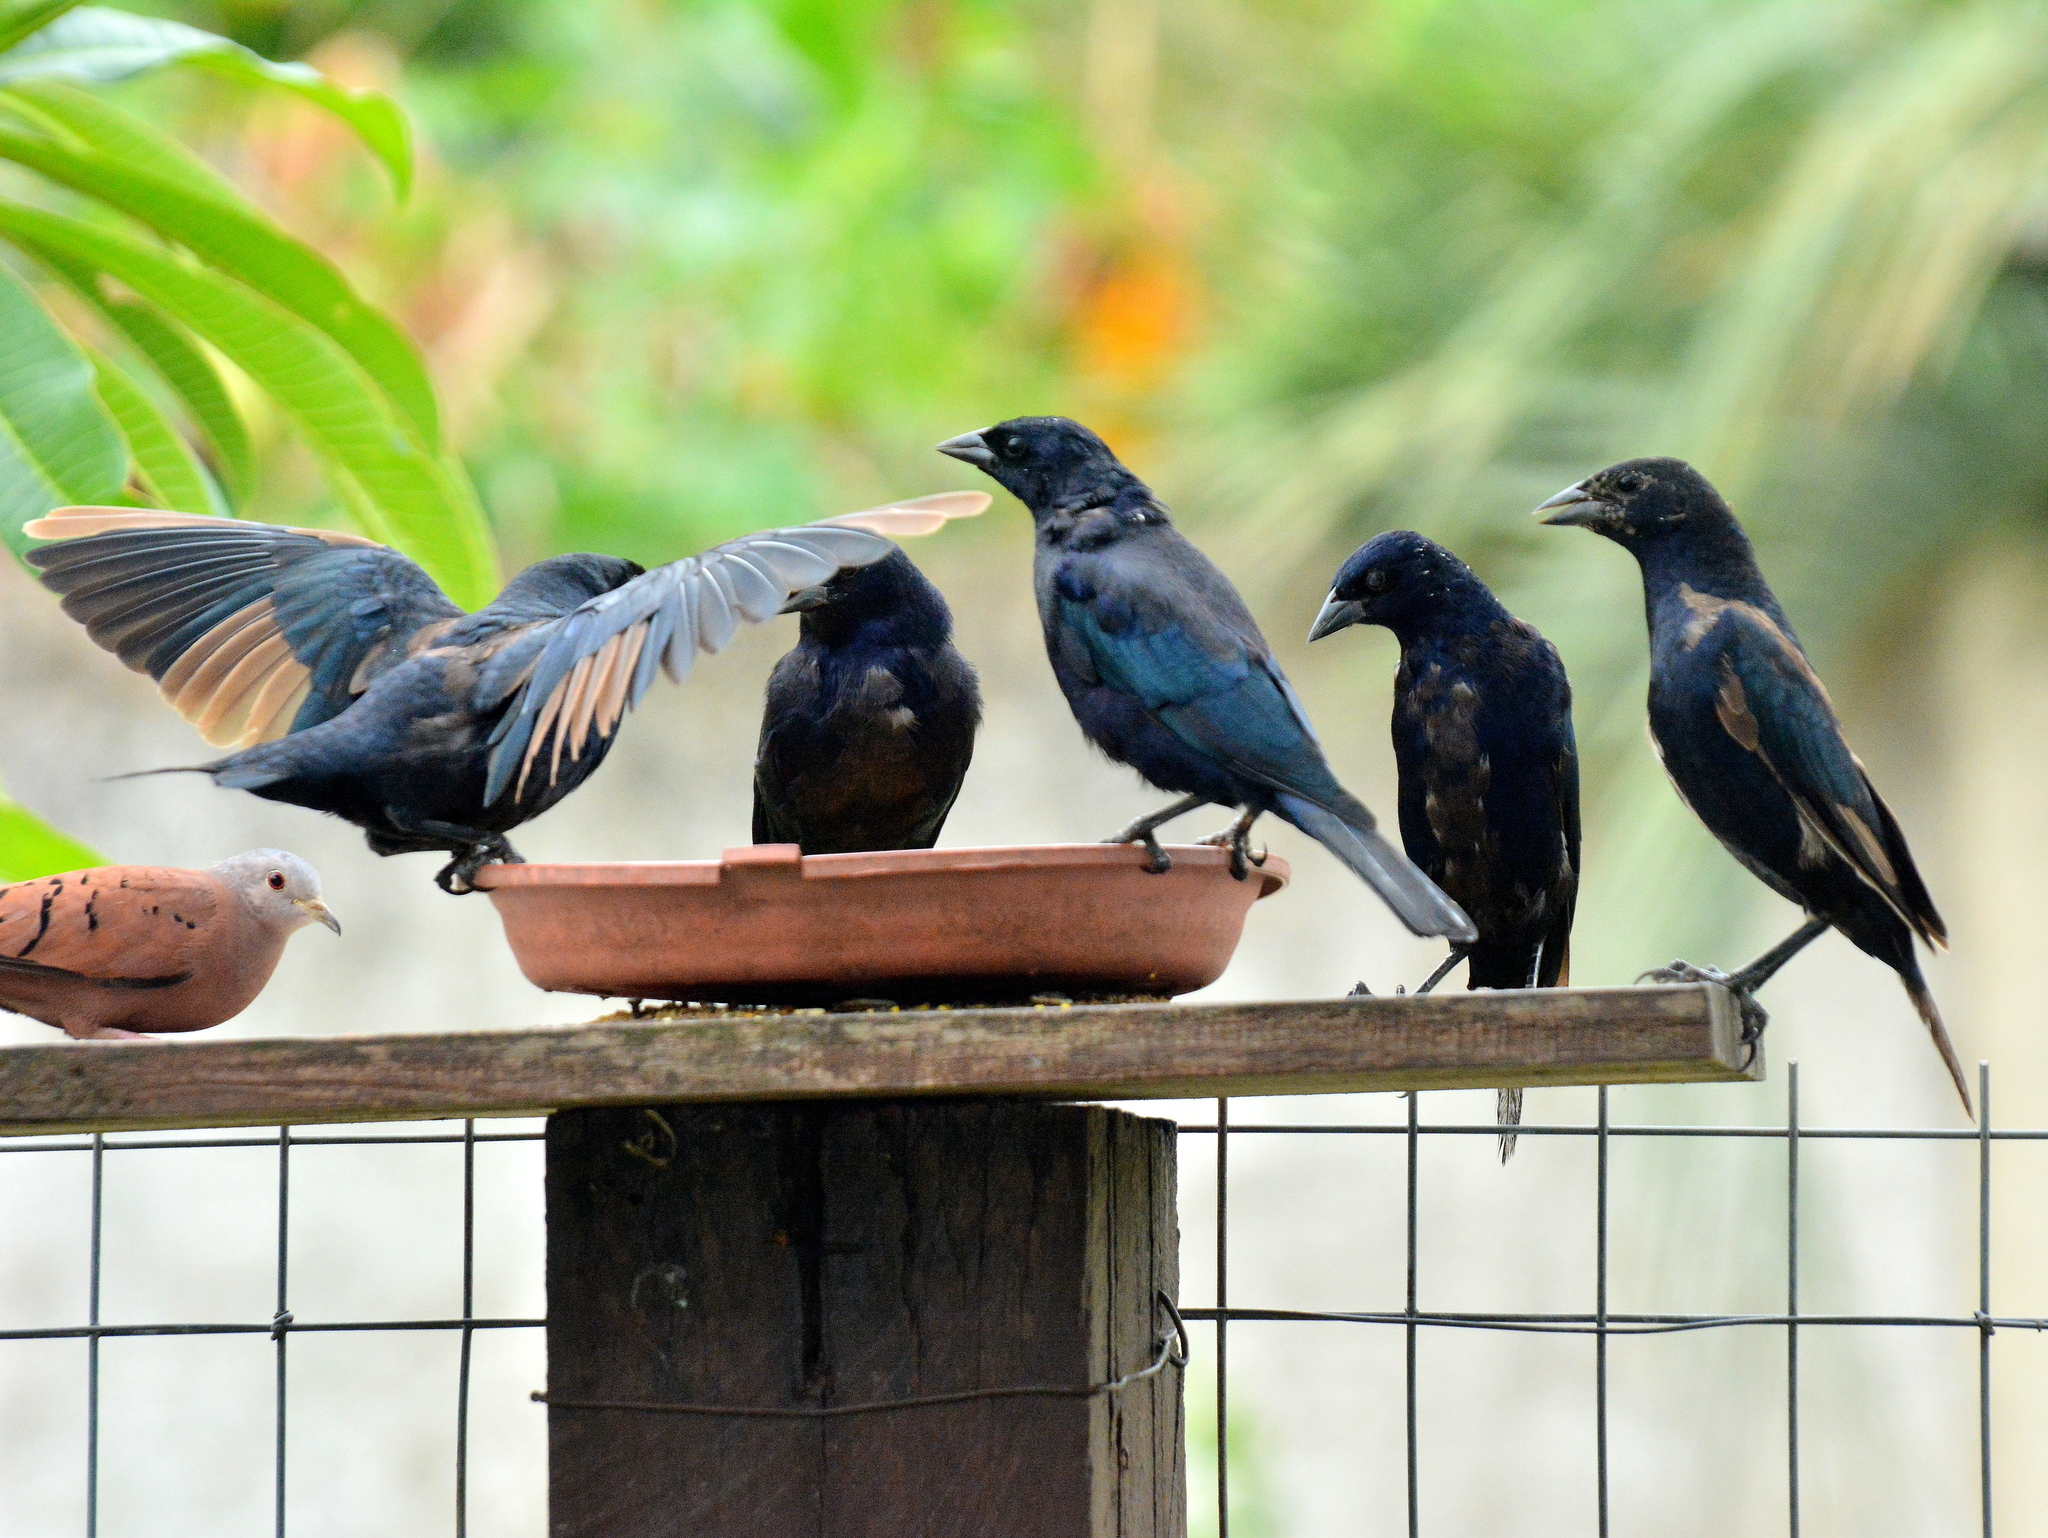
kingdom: Animalia
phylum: Chordata
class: Aves
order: Passeriformes
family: Icteridae
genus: Molothrus
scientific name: Molothrus bonariensis
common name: Shiny cowbird
